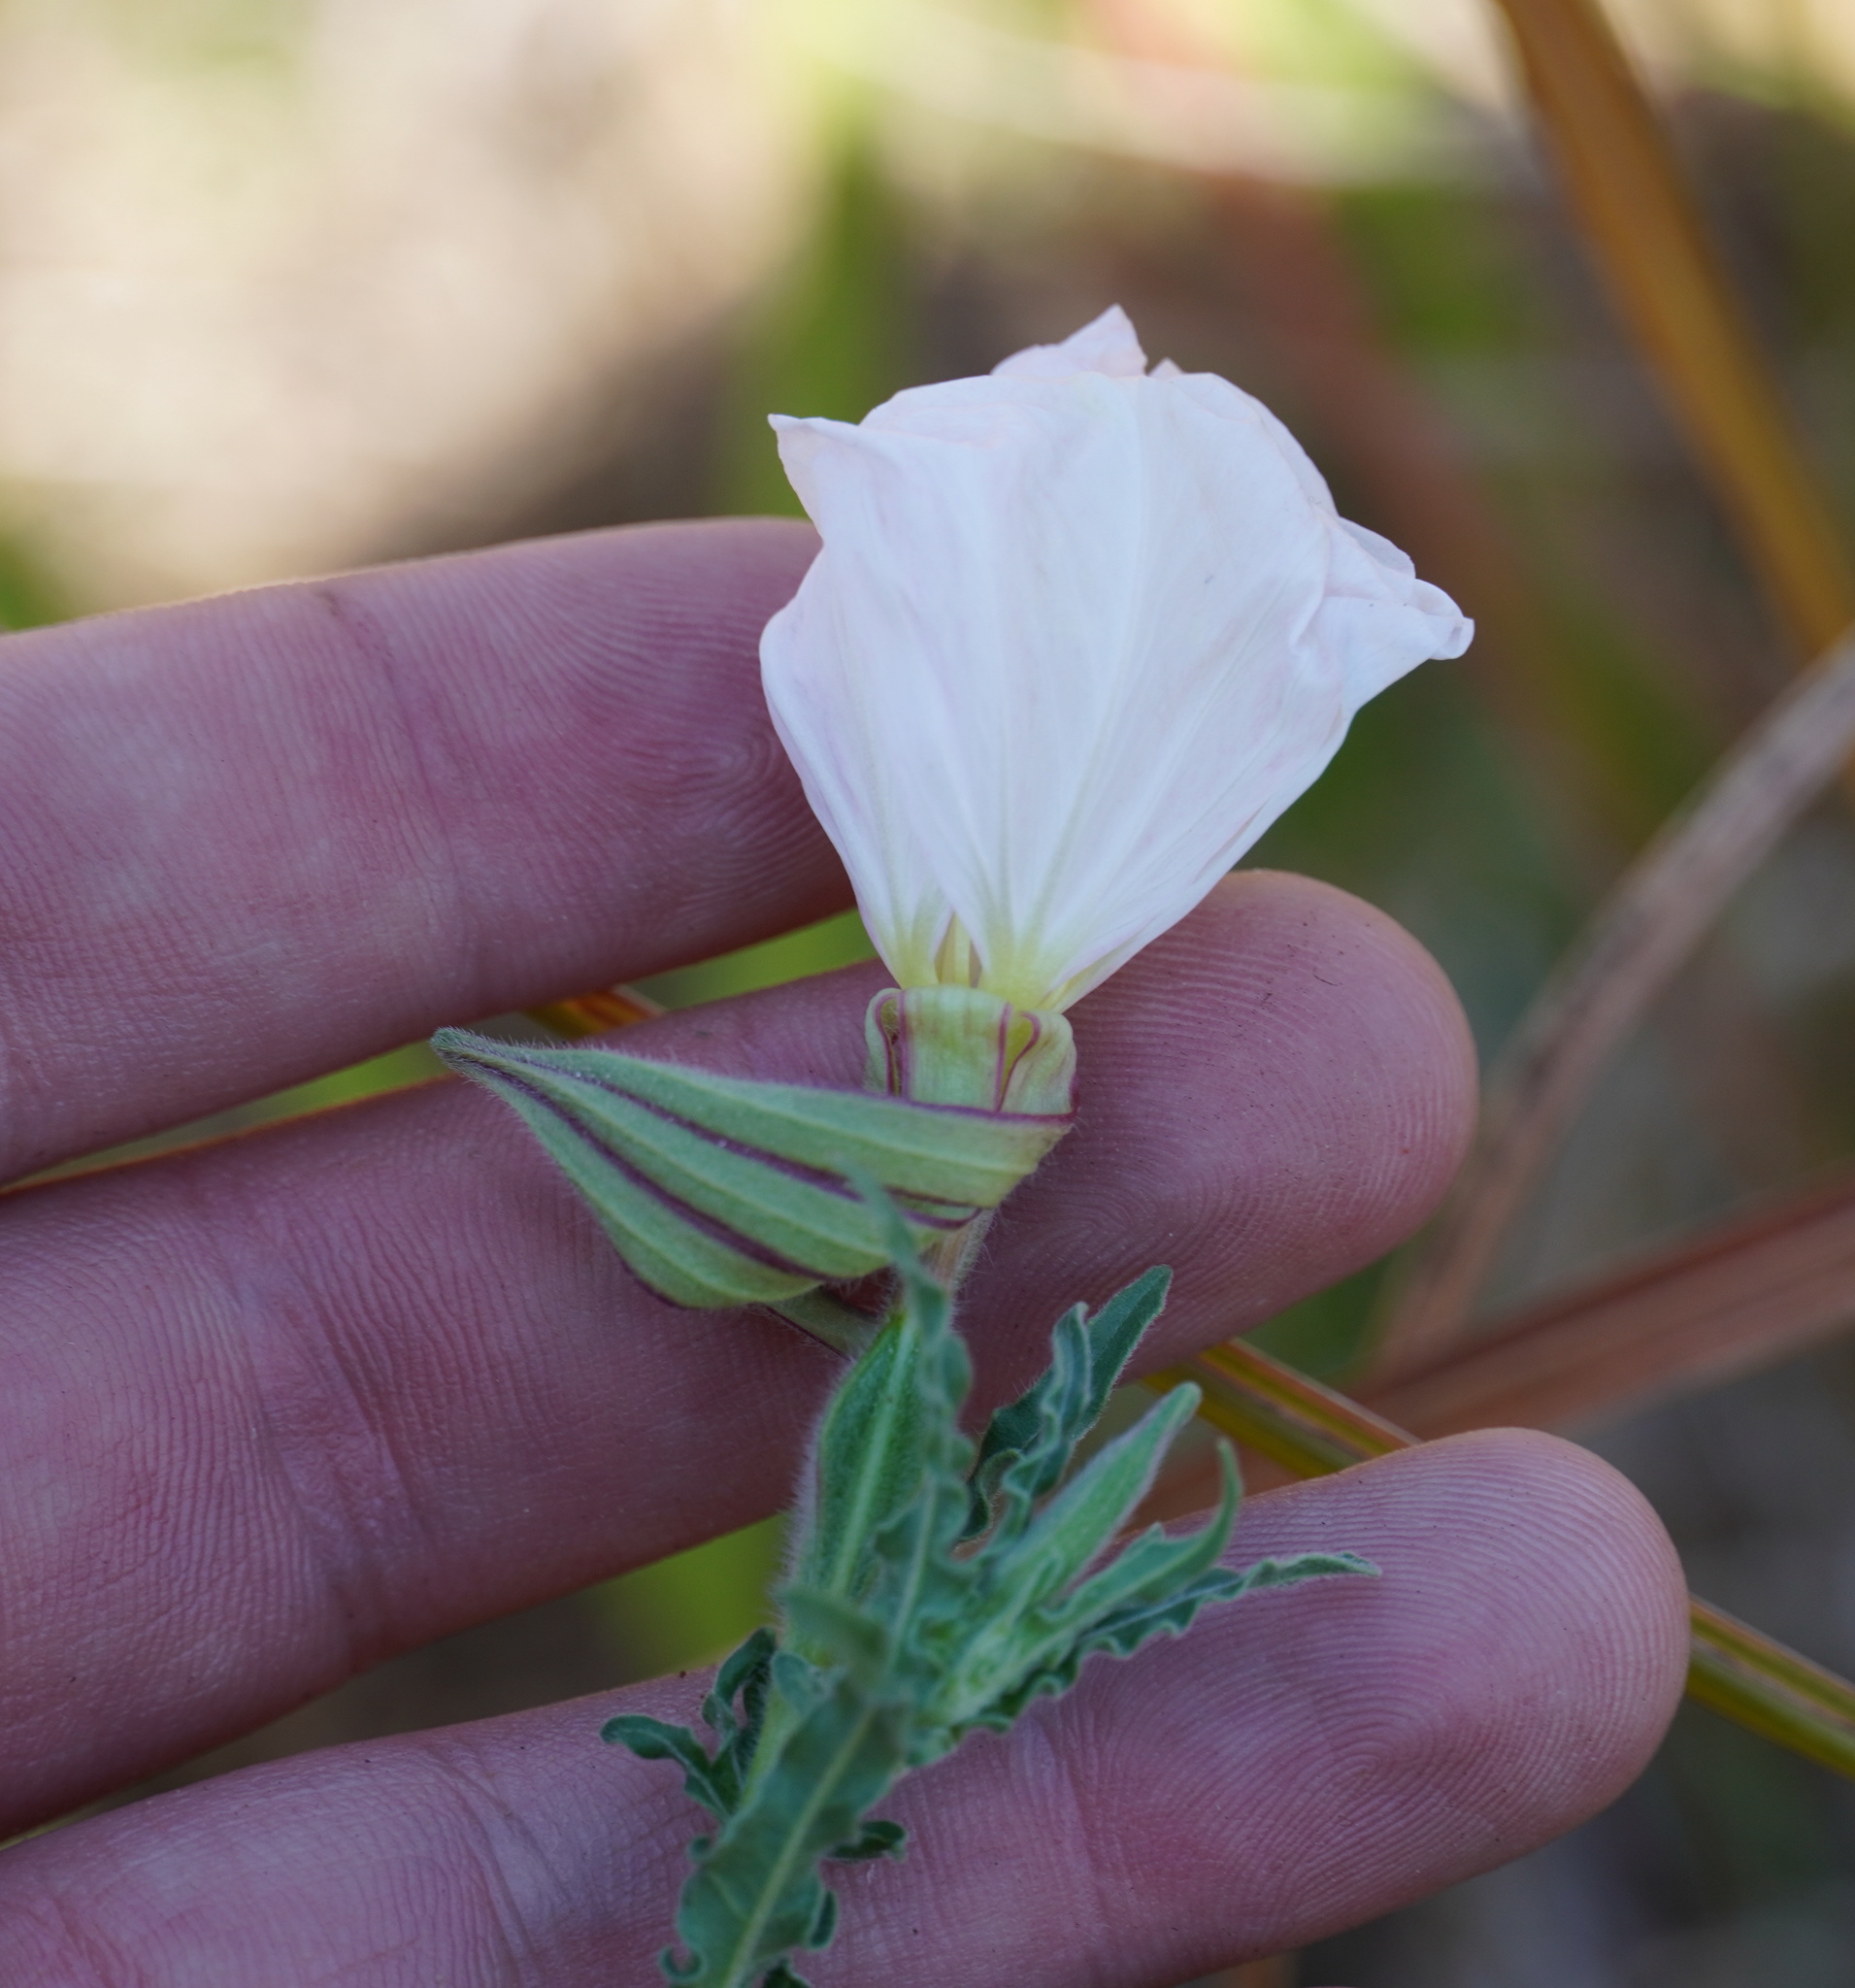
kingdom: Plantae
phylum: Tracheophyta
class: Magnoliopsida
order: Myrtales
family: Onagraceae
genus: Oenothera
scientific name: Oenothera tetraptera
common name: Four-wing evening-primrose
